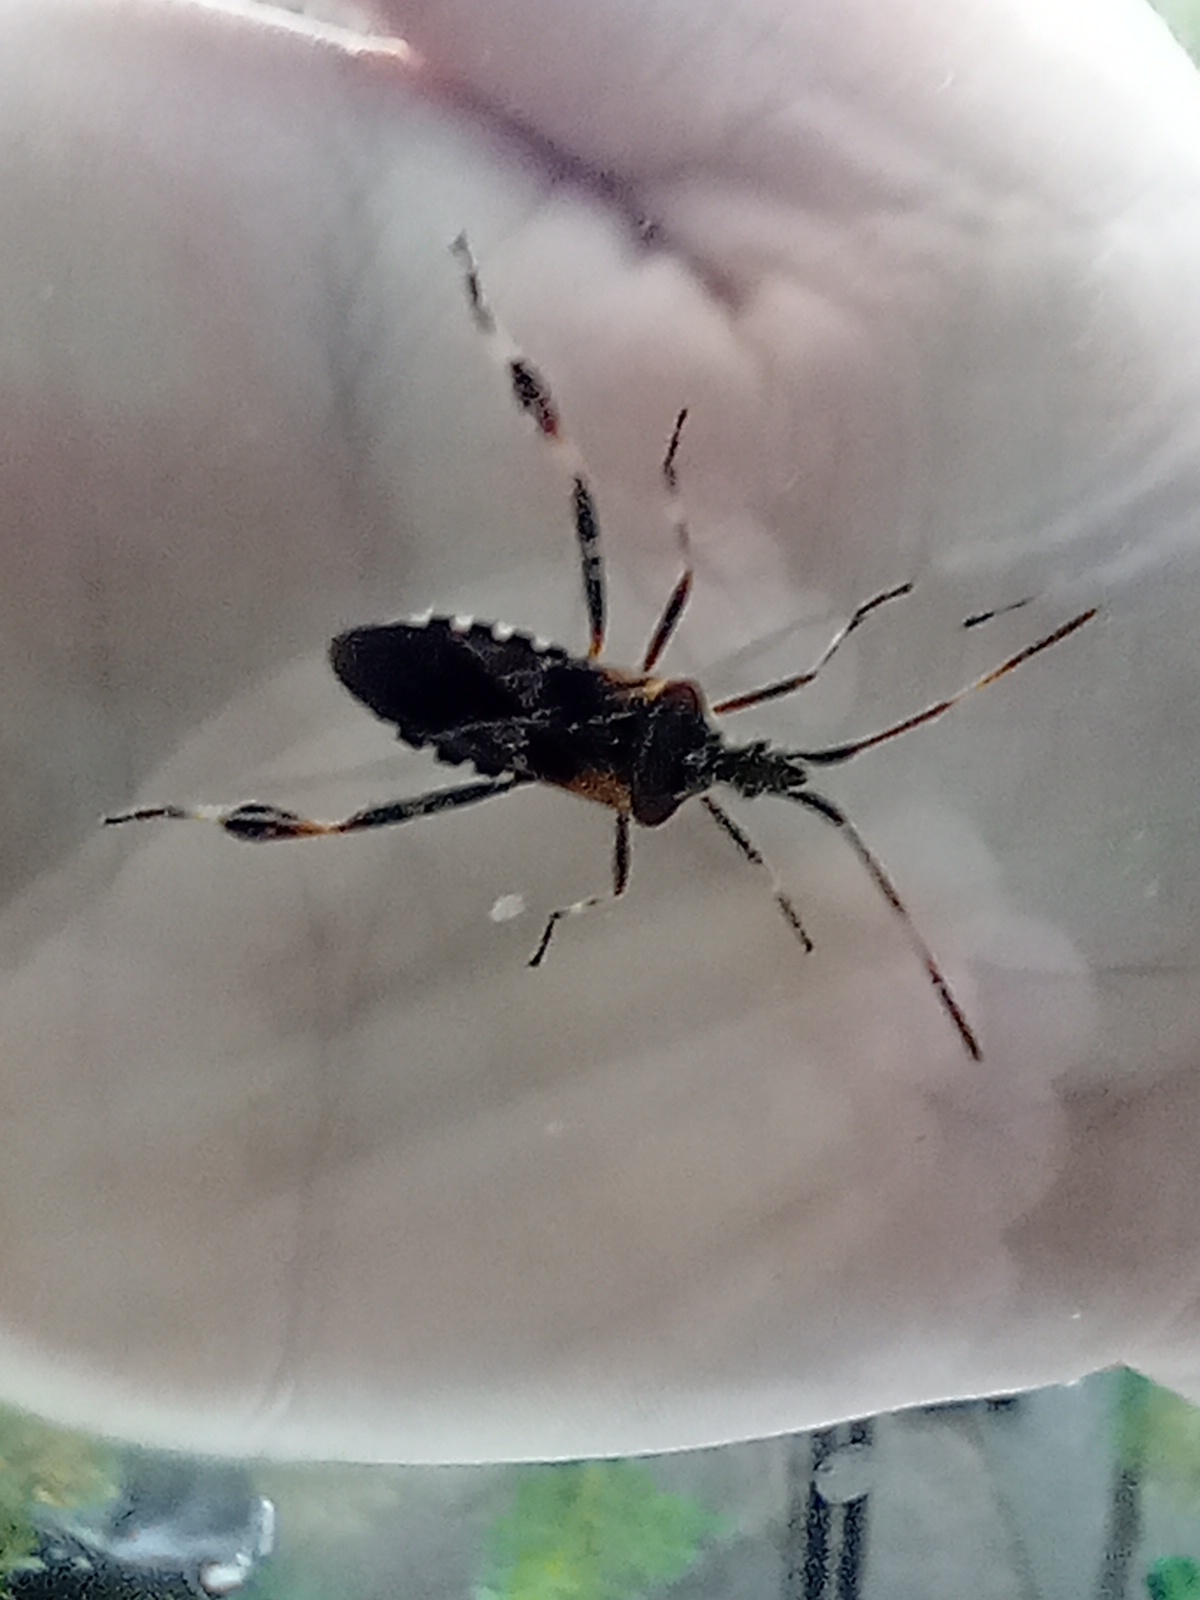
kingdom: Animalia
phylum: Arthropoda
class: Insecta
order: Hemiptera
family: Coreidae
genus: Leptoglossus
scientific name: Leptoglossus occidentalis
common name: Western conifer-seed bug
